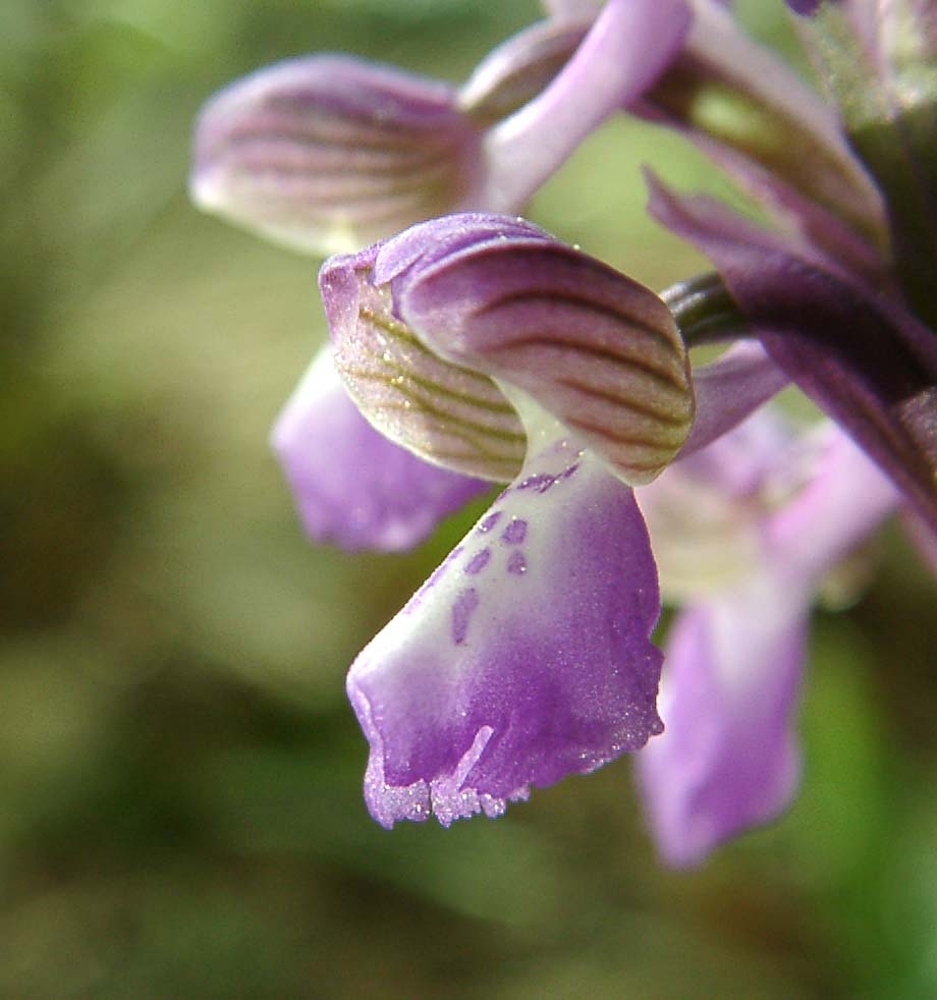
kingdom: Plantae
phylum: Tracheophyta
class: Liliopsida
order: Asparagales
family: Orchidaceae
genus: Anacamptis
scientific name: Anacamptis morio
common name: Green-winged orchid
